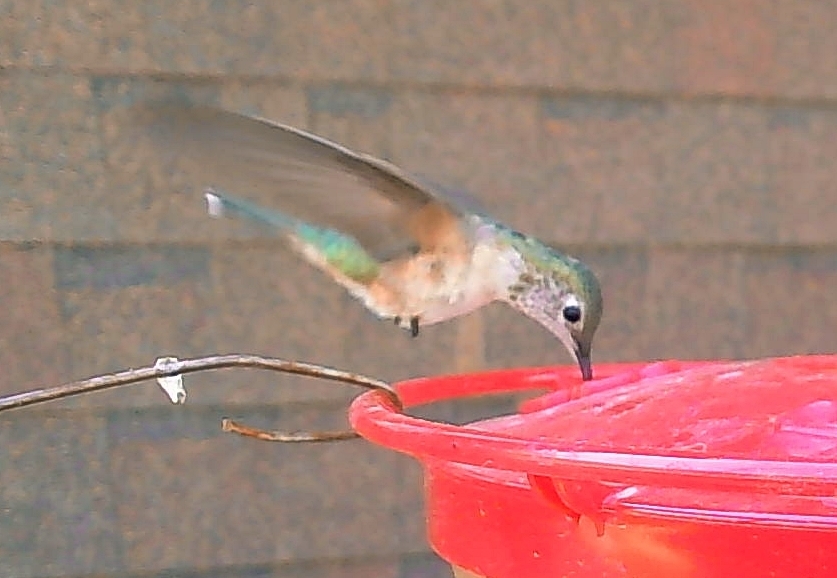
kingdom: Animalia
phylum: Chordata
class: Aves
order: Apodiformes
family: Trochilidae
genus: Selasphorus
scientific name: Selasphorus platycercus
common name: Broad-tailed hummingbird
